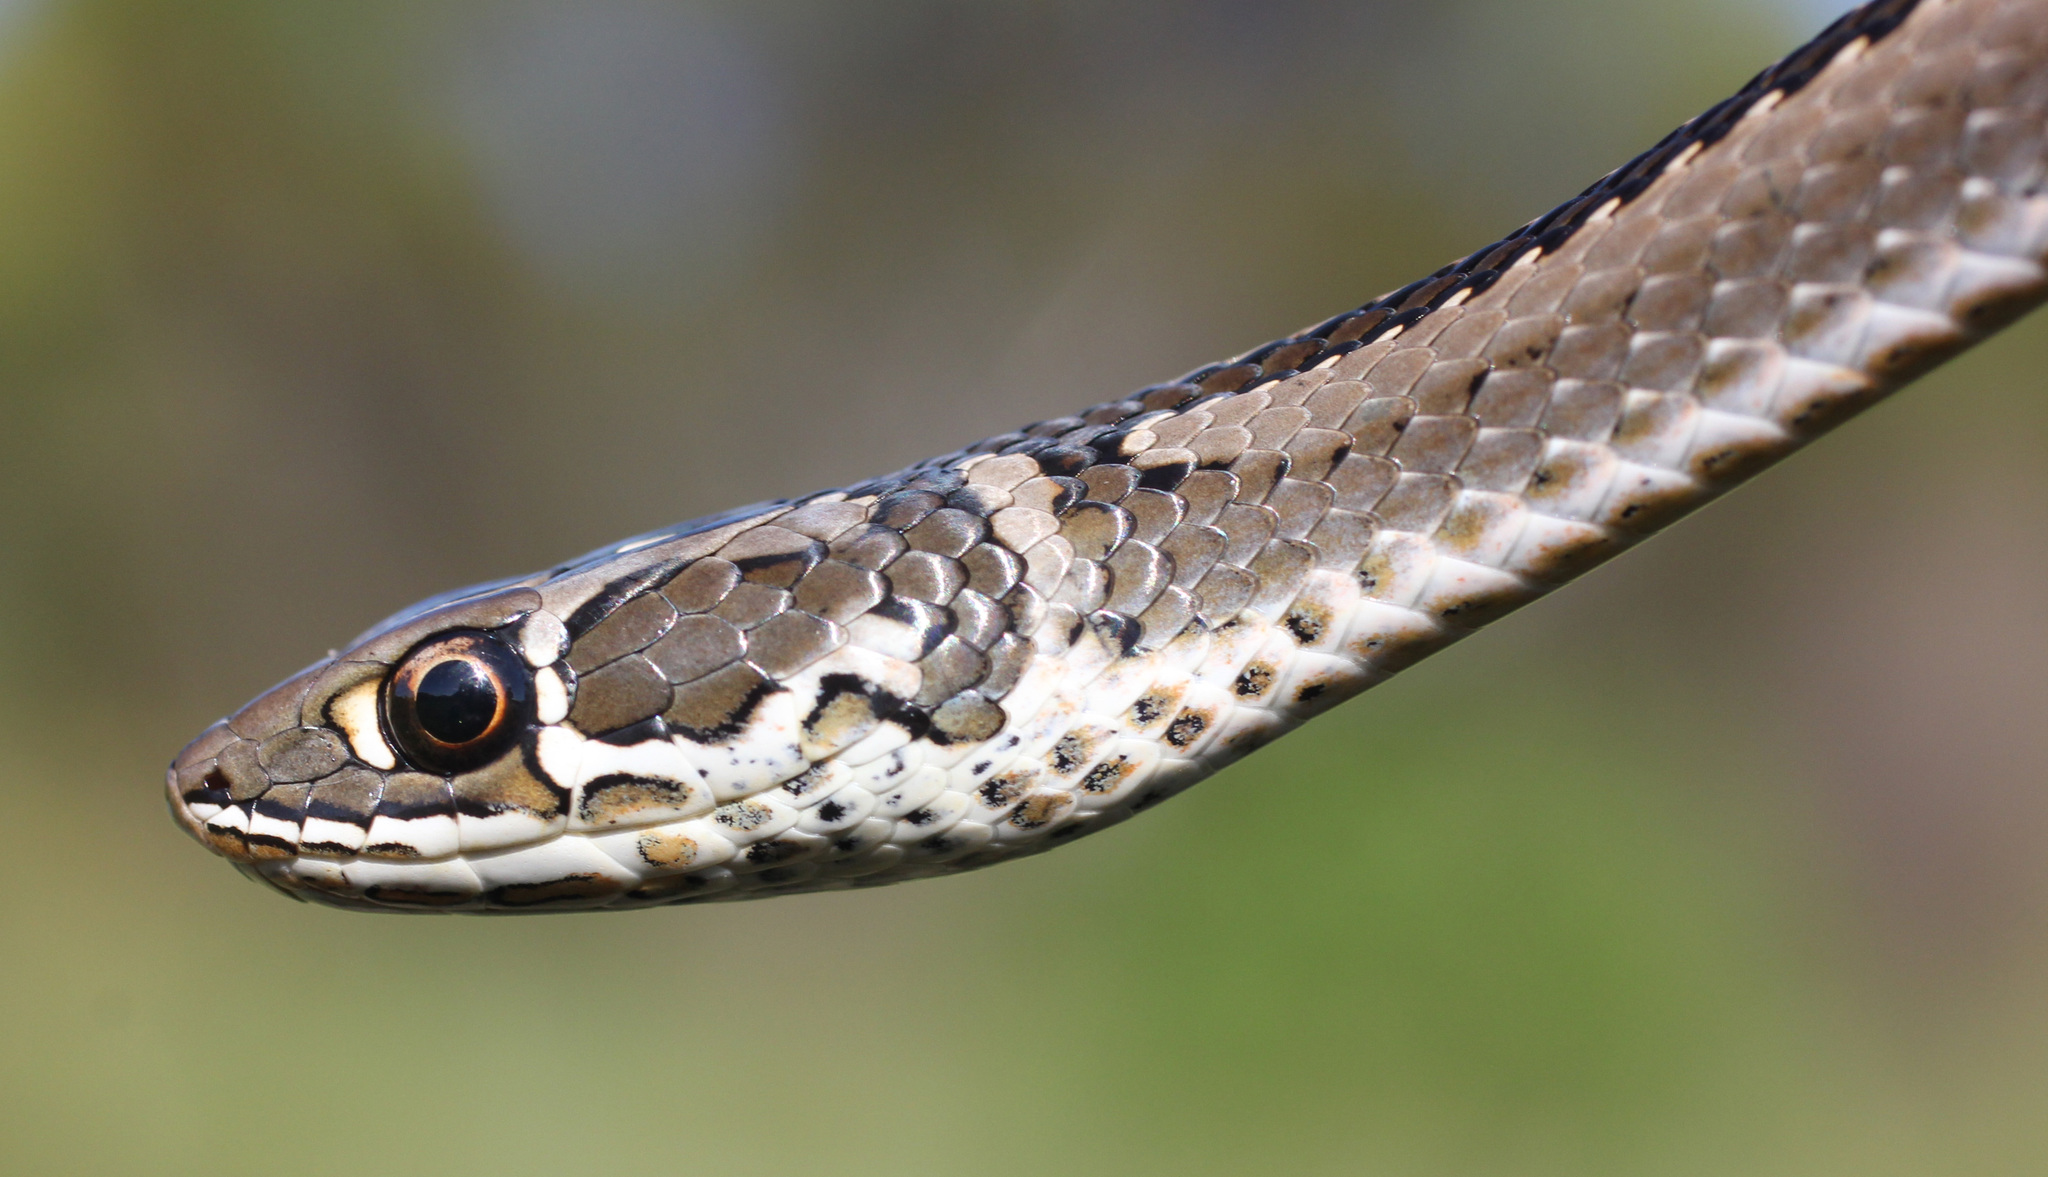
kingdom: Animalia
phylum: Chordata
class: Squamata
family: Psammophiidae
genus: Psammophis
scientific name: Psammophis crucifer
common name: Cross-marked grass snake
